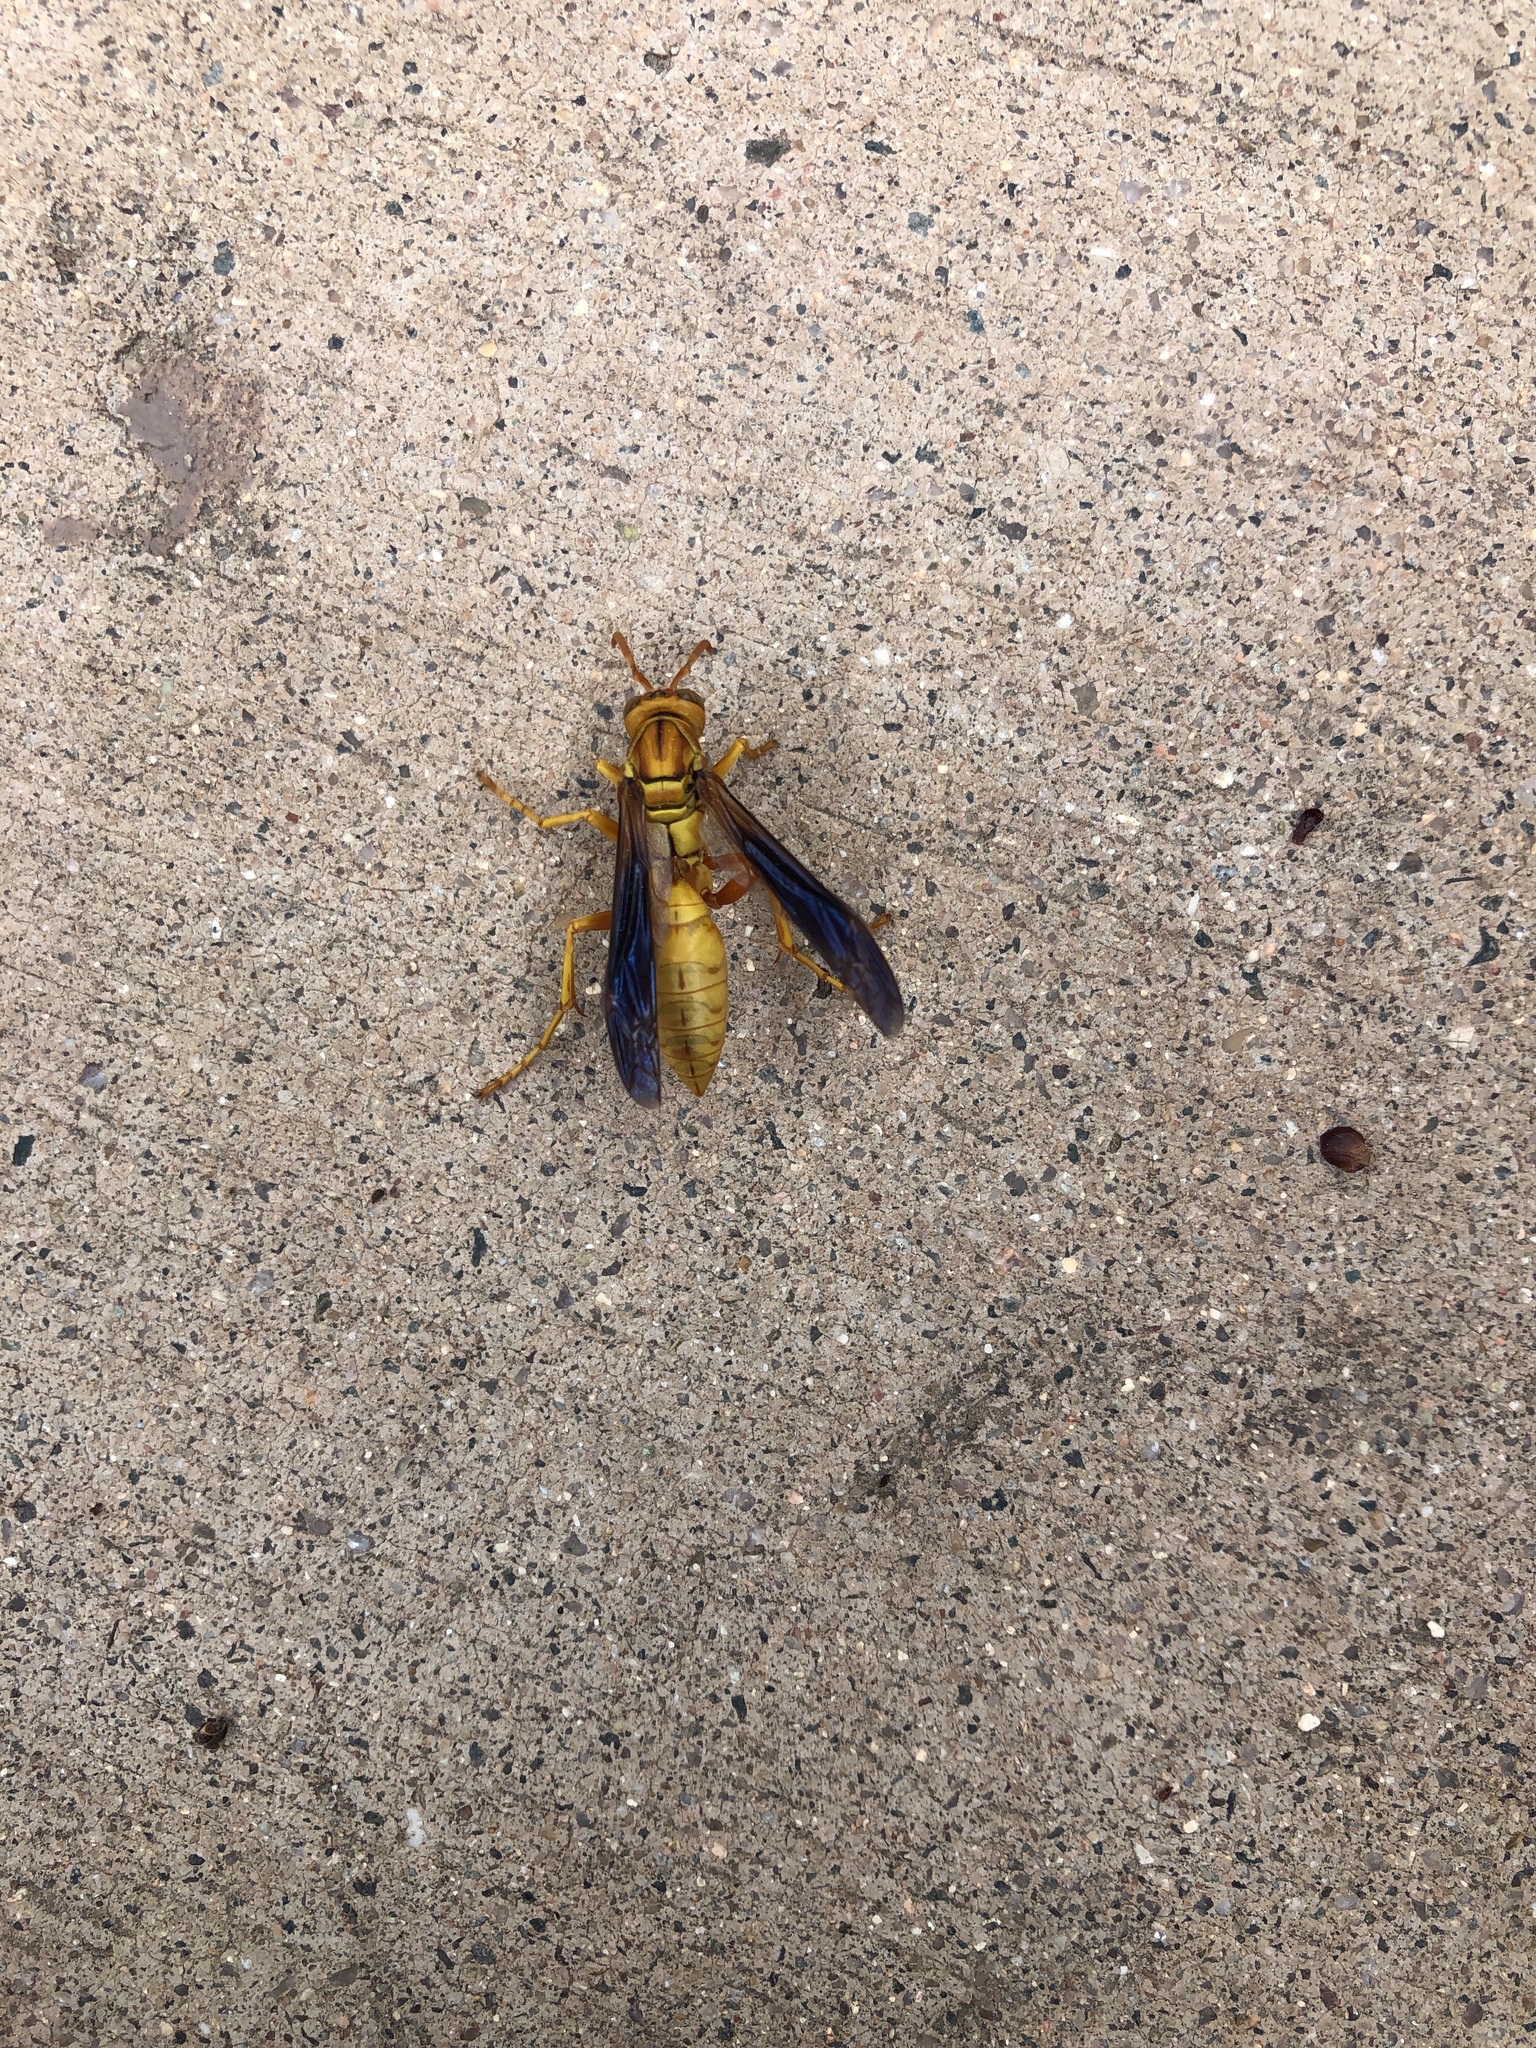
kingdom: Animalia
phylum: Arthropoda
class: Insecta
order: Hymenoptera
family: Eumenidae
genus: Polistes
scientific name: Polistes flavus
